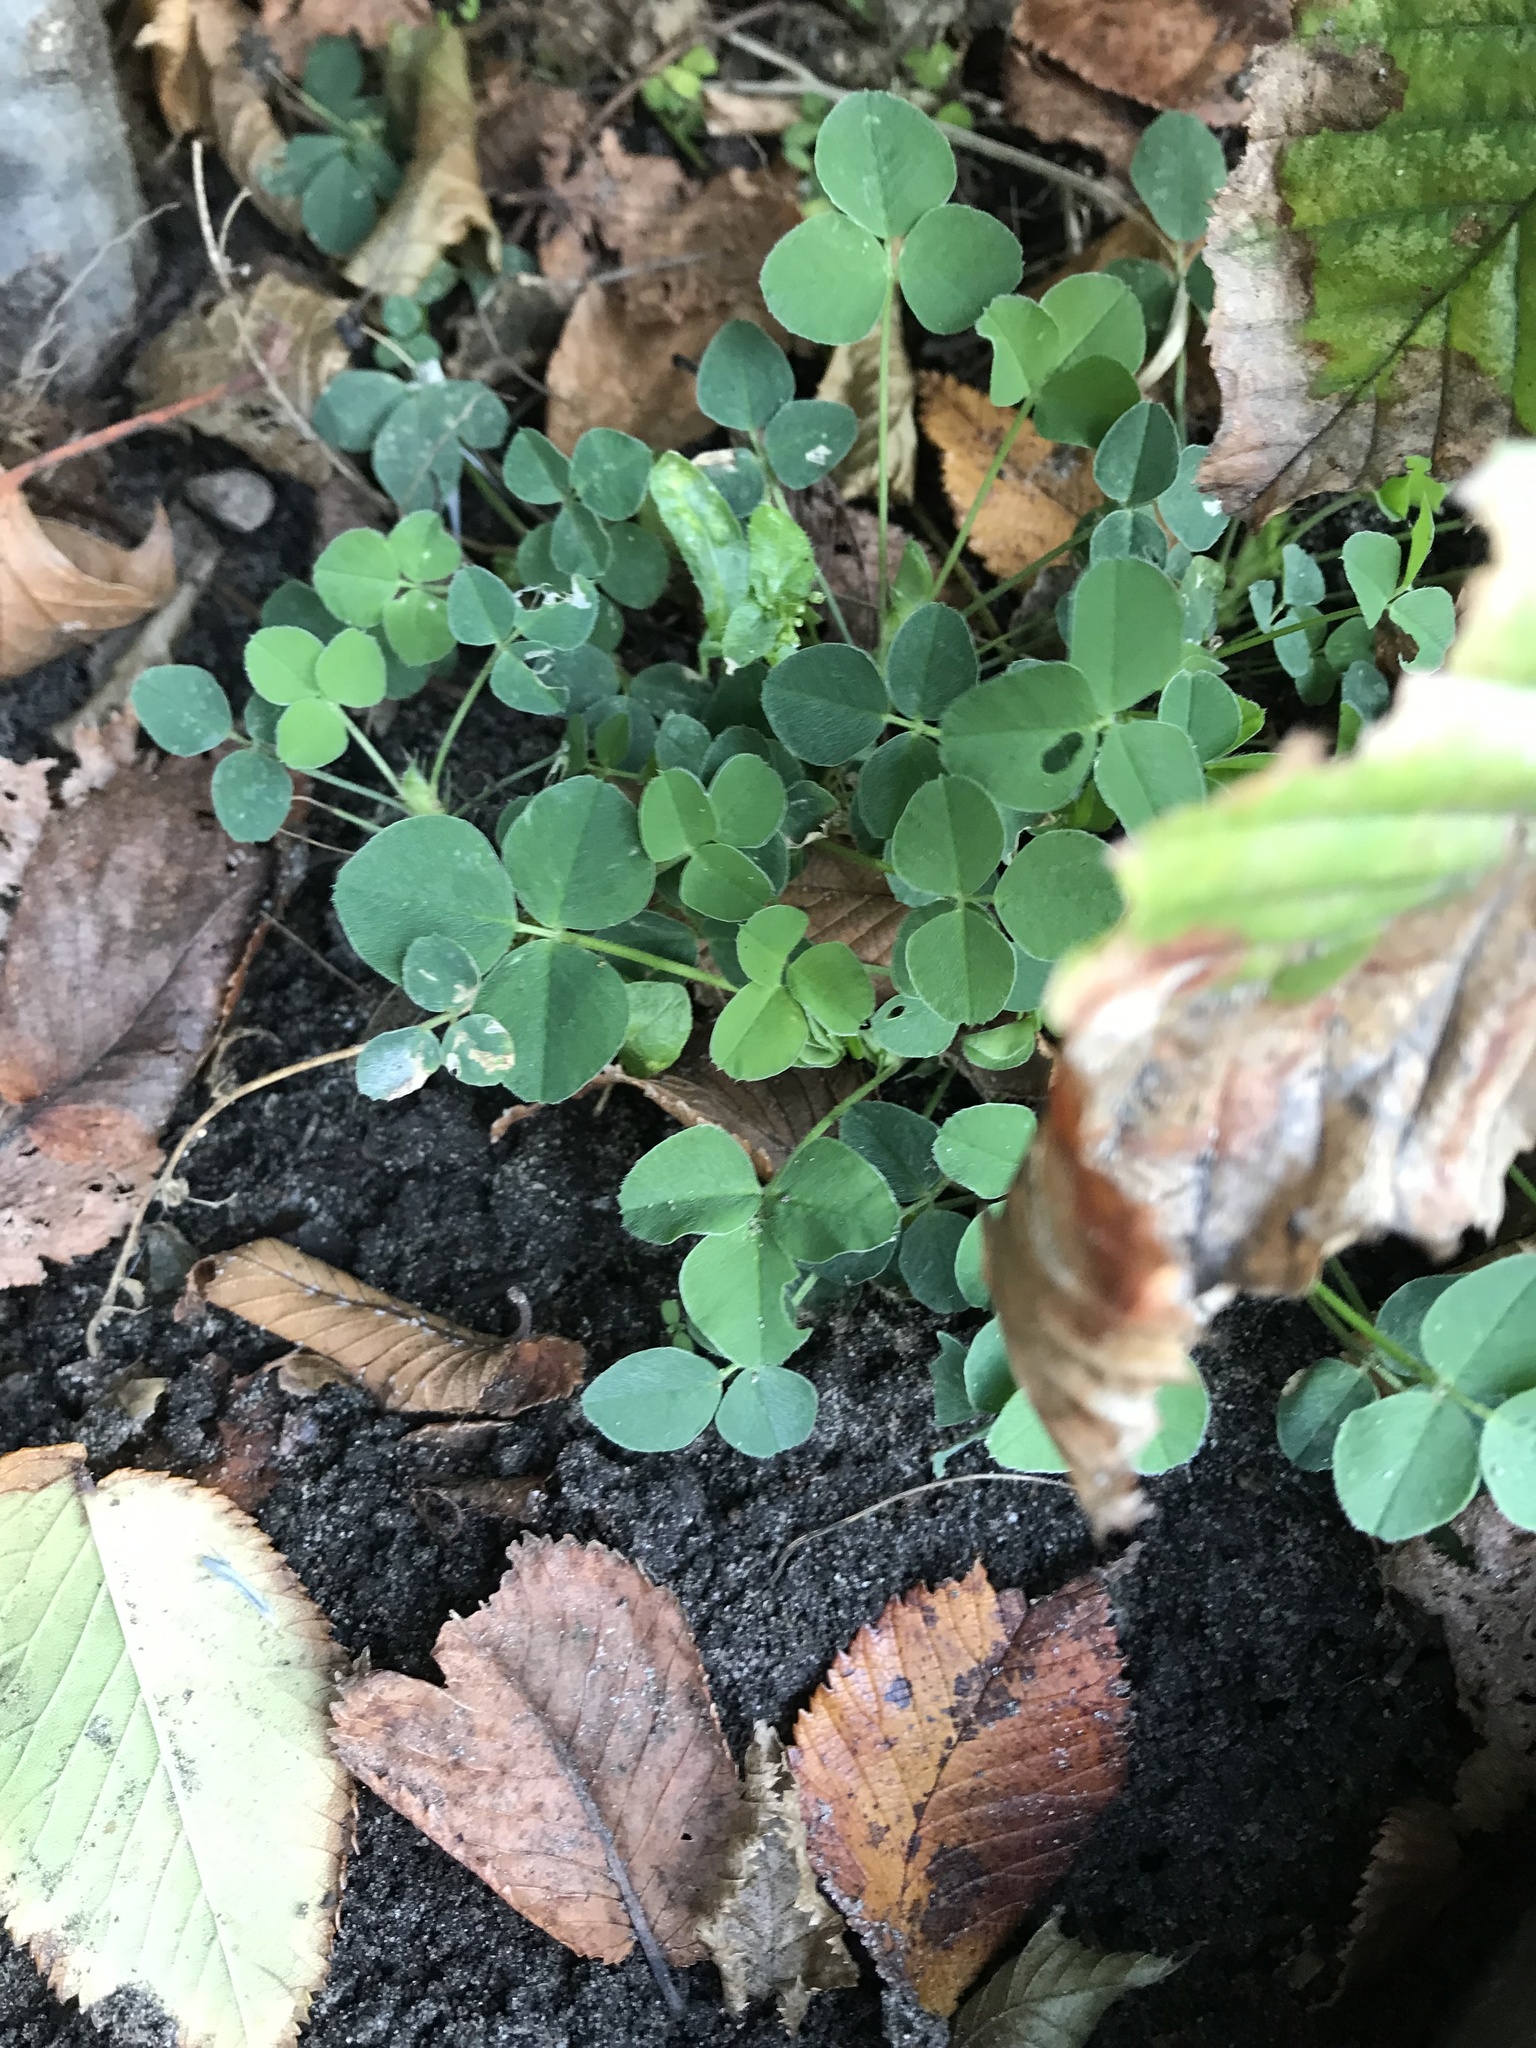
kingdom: Plantae
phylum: Tracheophyta
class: Magnoliopsida
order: Fabales
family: Fabaceae
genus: Medicago
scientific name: Medicago lupulina
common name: Black medick
